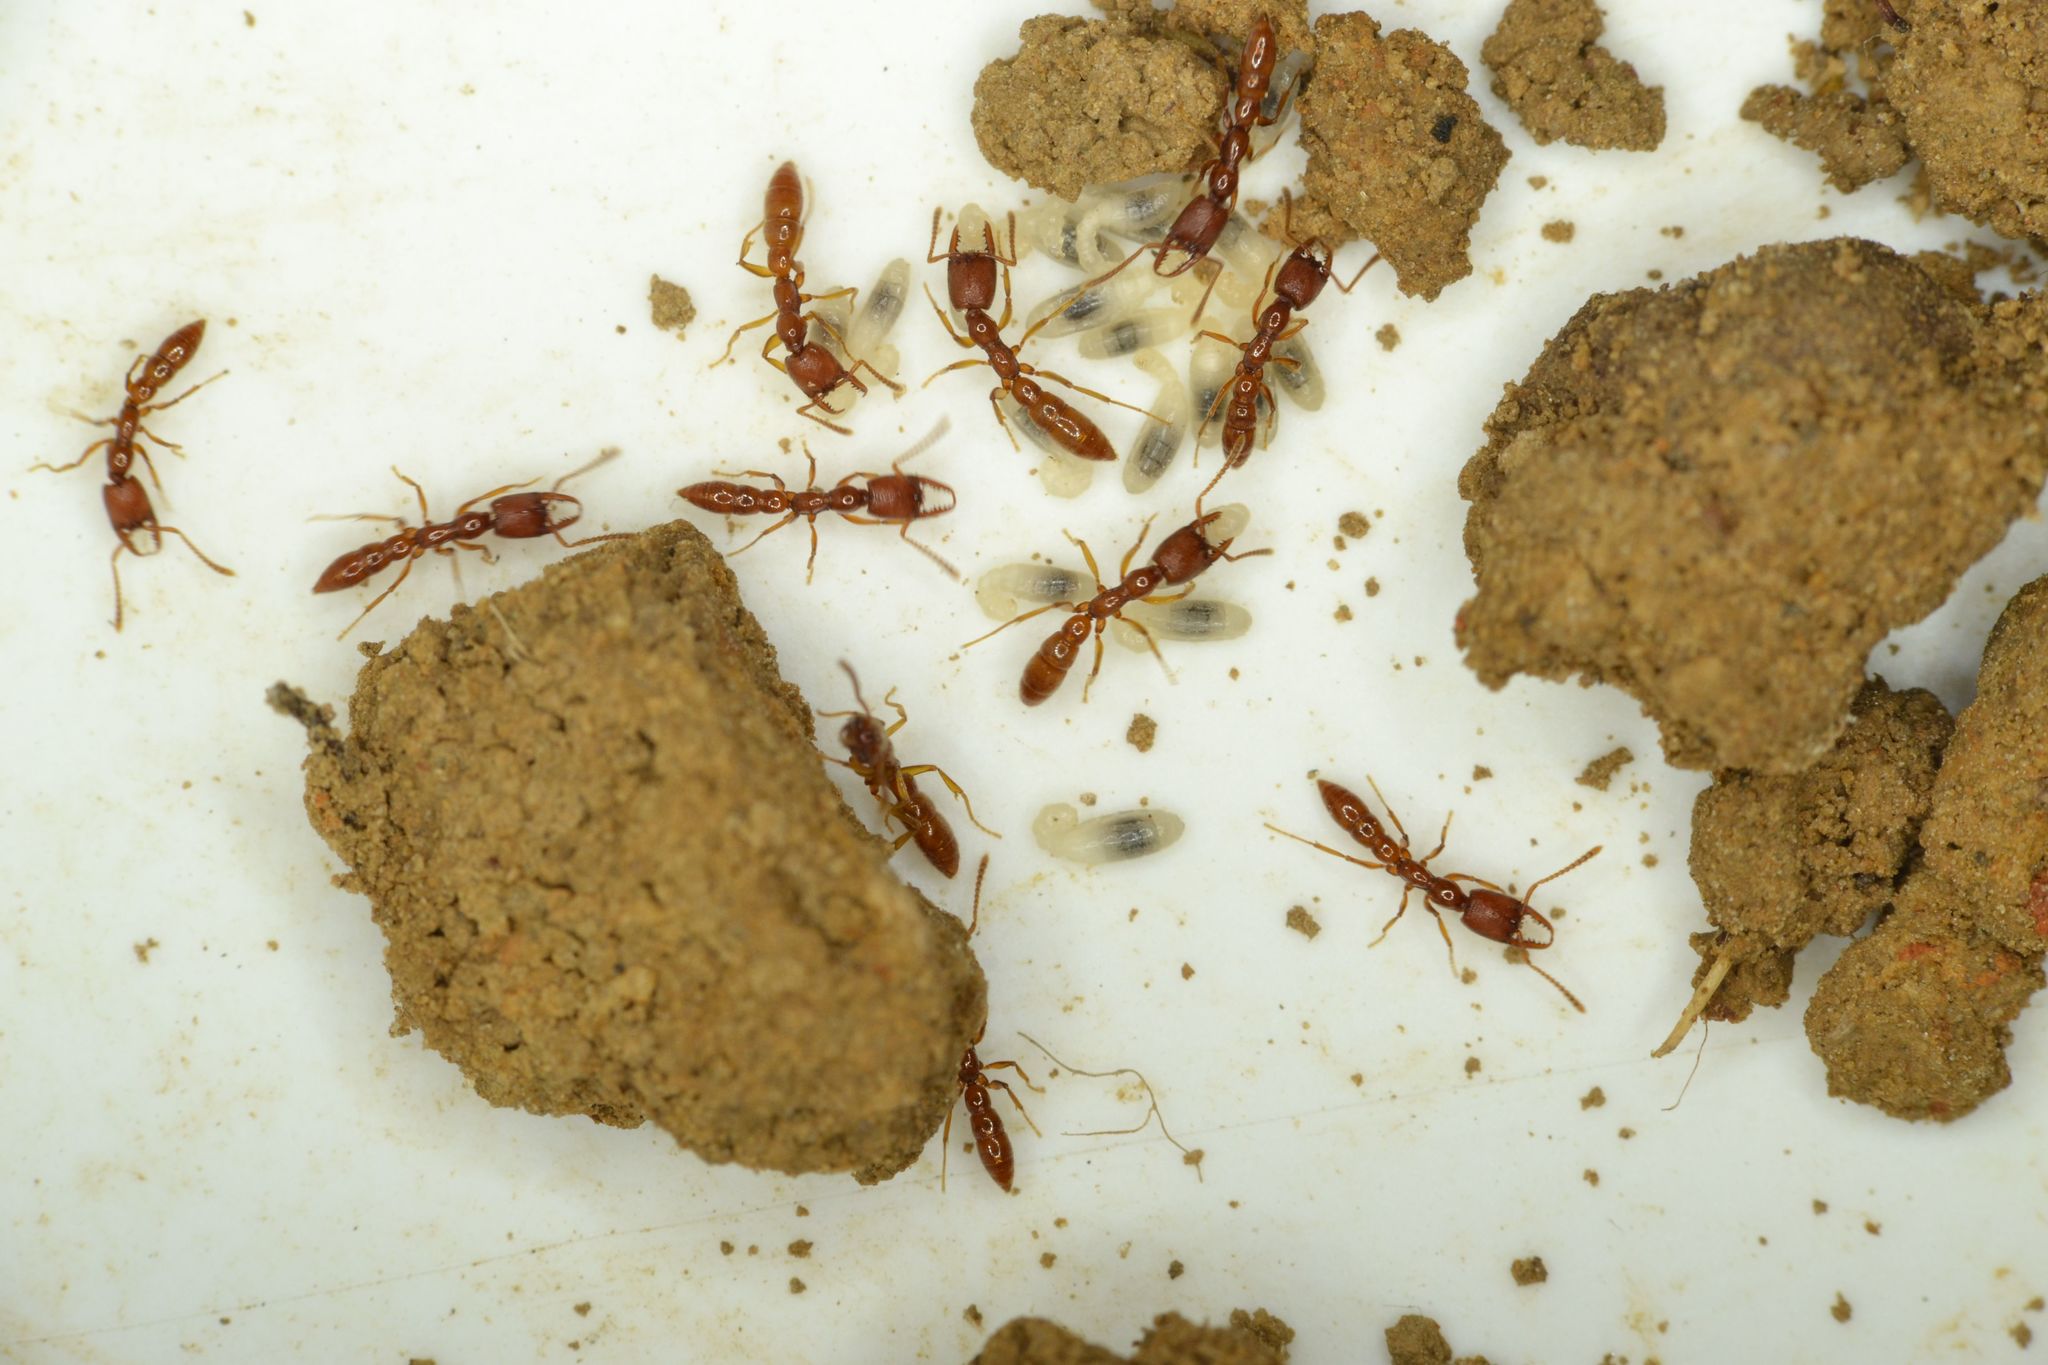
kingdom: Animalia
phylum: Arthropoda
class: Insecta
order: Hymenoptera
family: Formicidae
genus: Stigmatomma
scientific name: Stigmatomma
